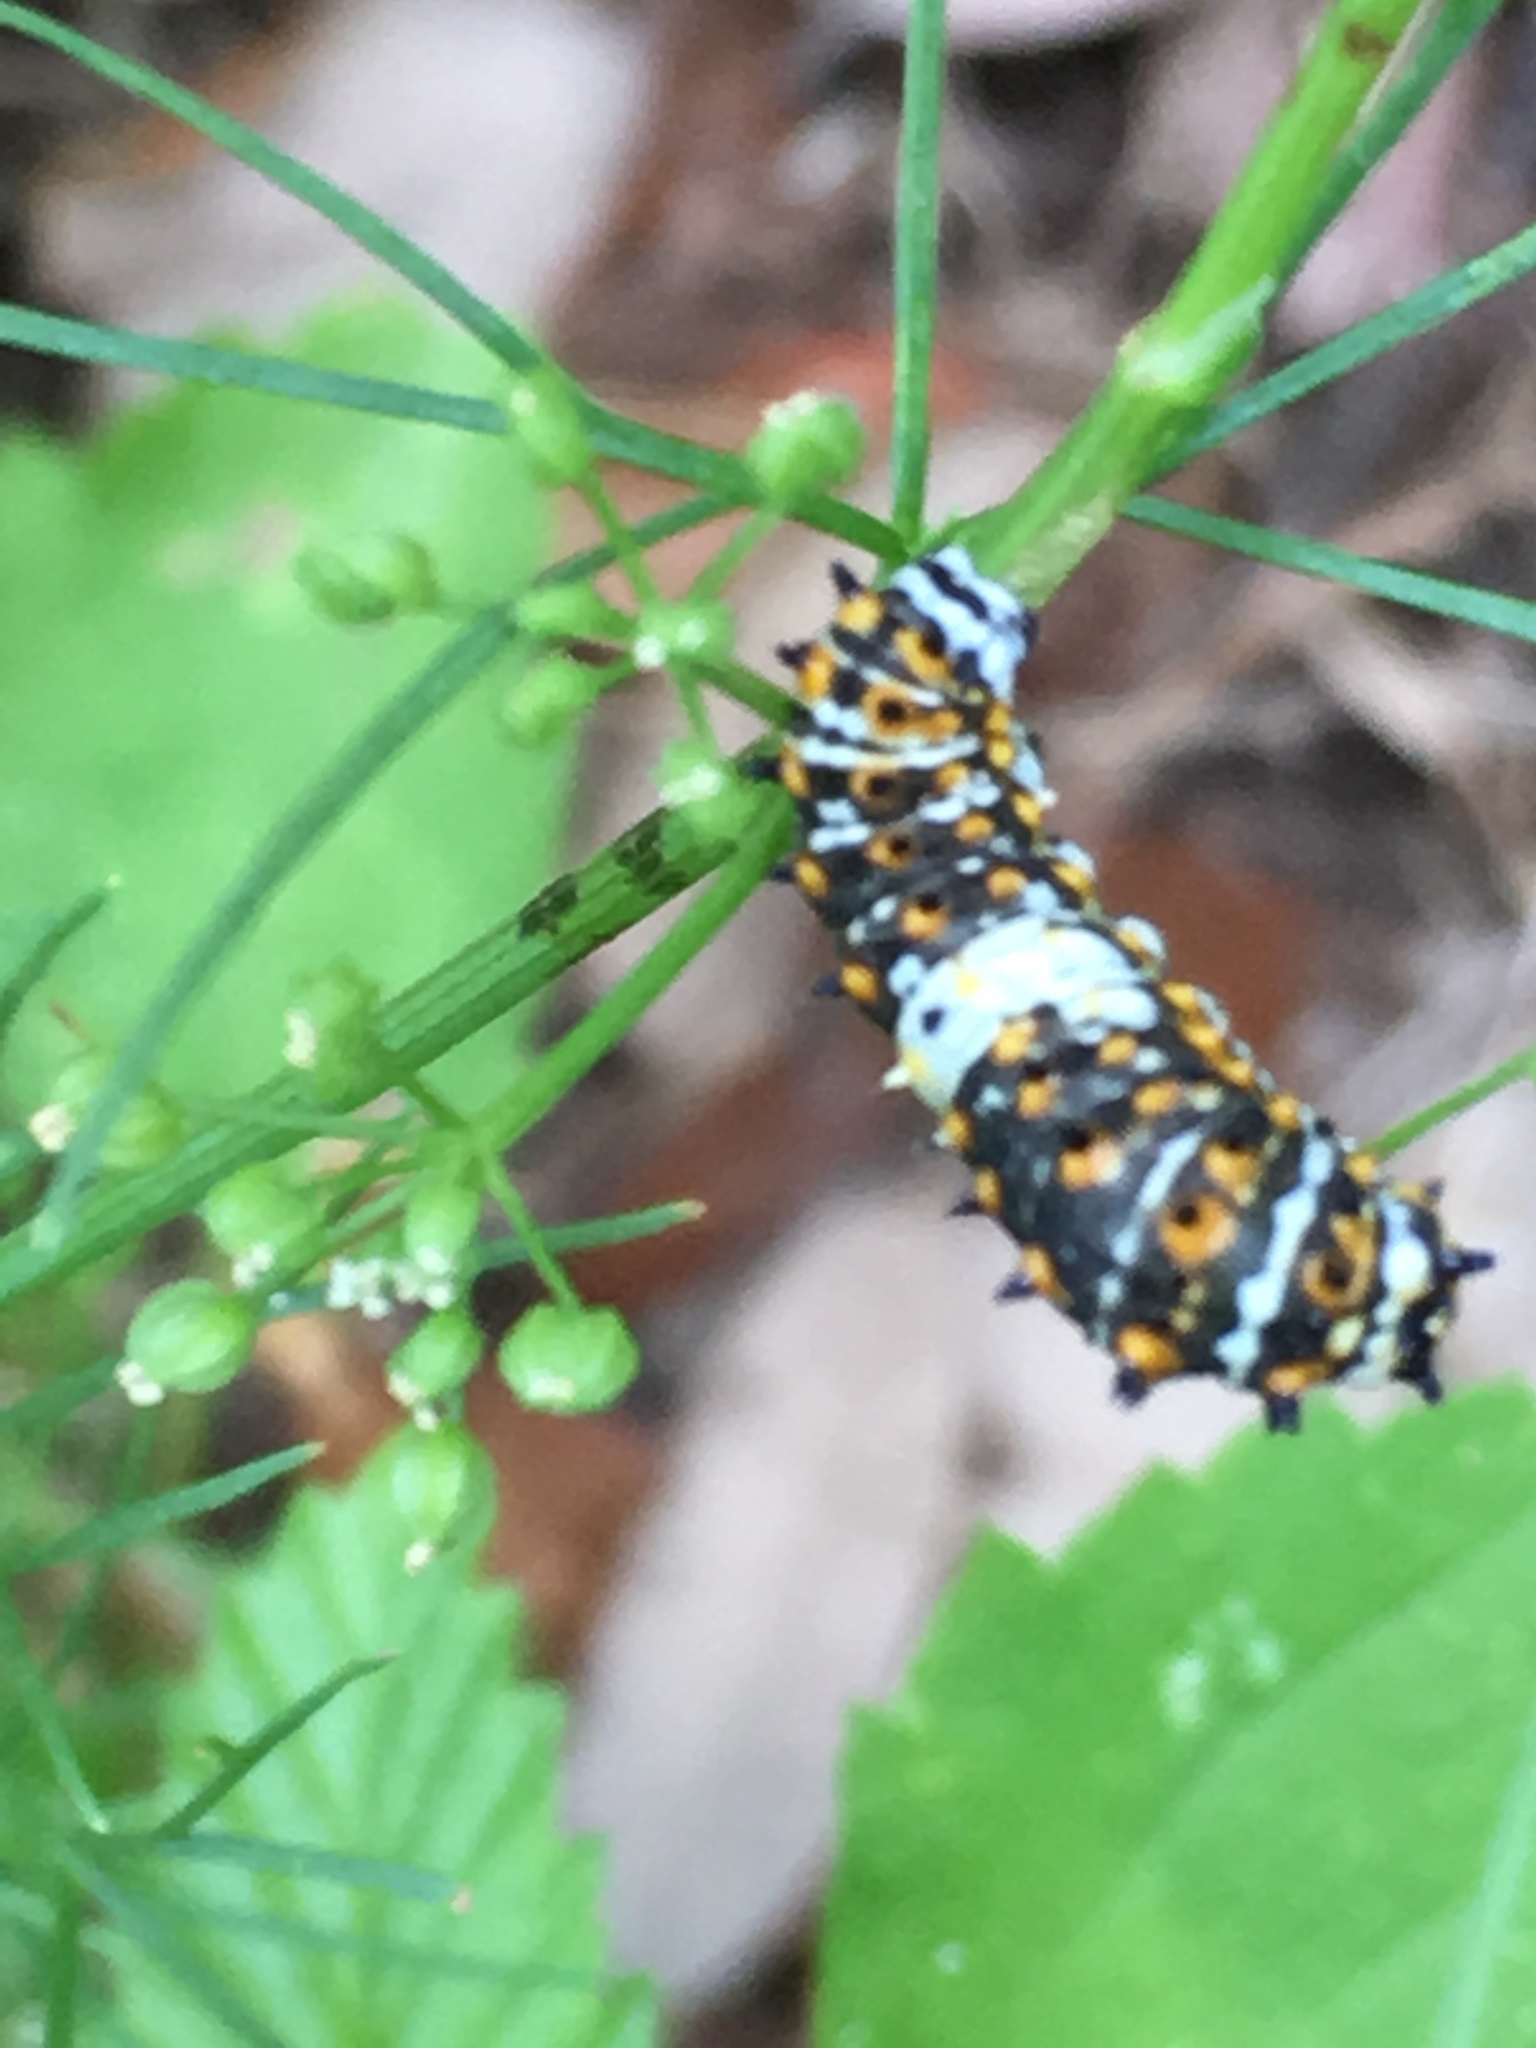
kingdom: Animalia
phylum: Arthropoda
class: Insecta
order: Lepidoptera
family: Papilionidae
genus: Papilio
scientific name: Papilio polyxenes
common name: Black swallowtail
